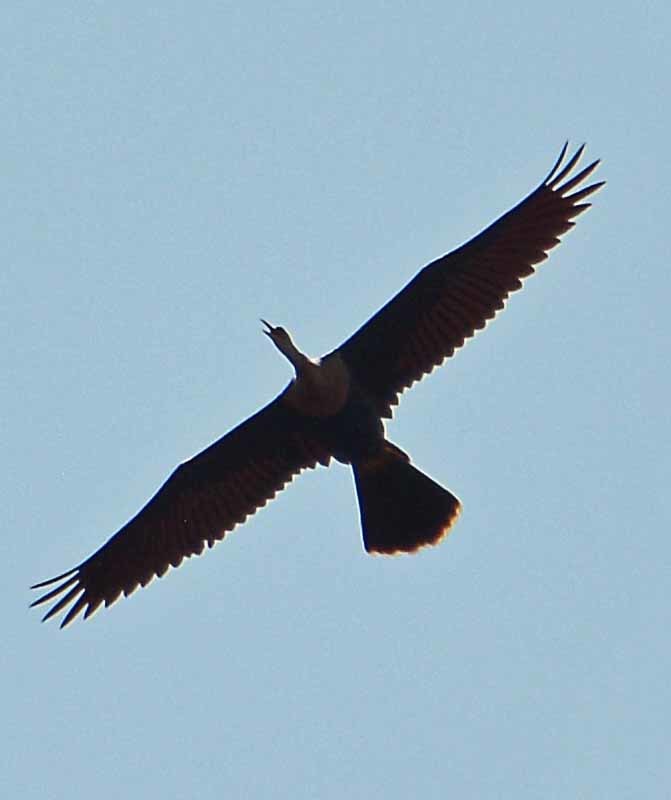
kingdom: Animalia
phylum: Chordata
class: Aves
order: Suliformes
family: Anhingidae
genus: Anhinga
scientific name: Anhinga anhinga
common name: Anhinga
